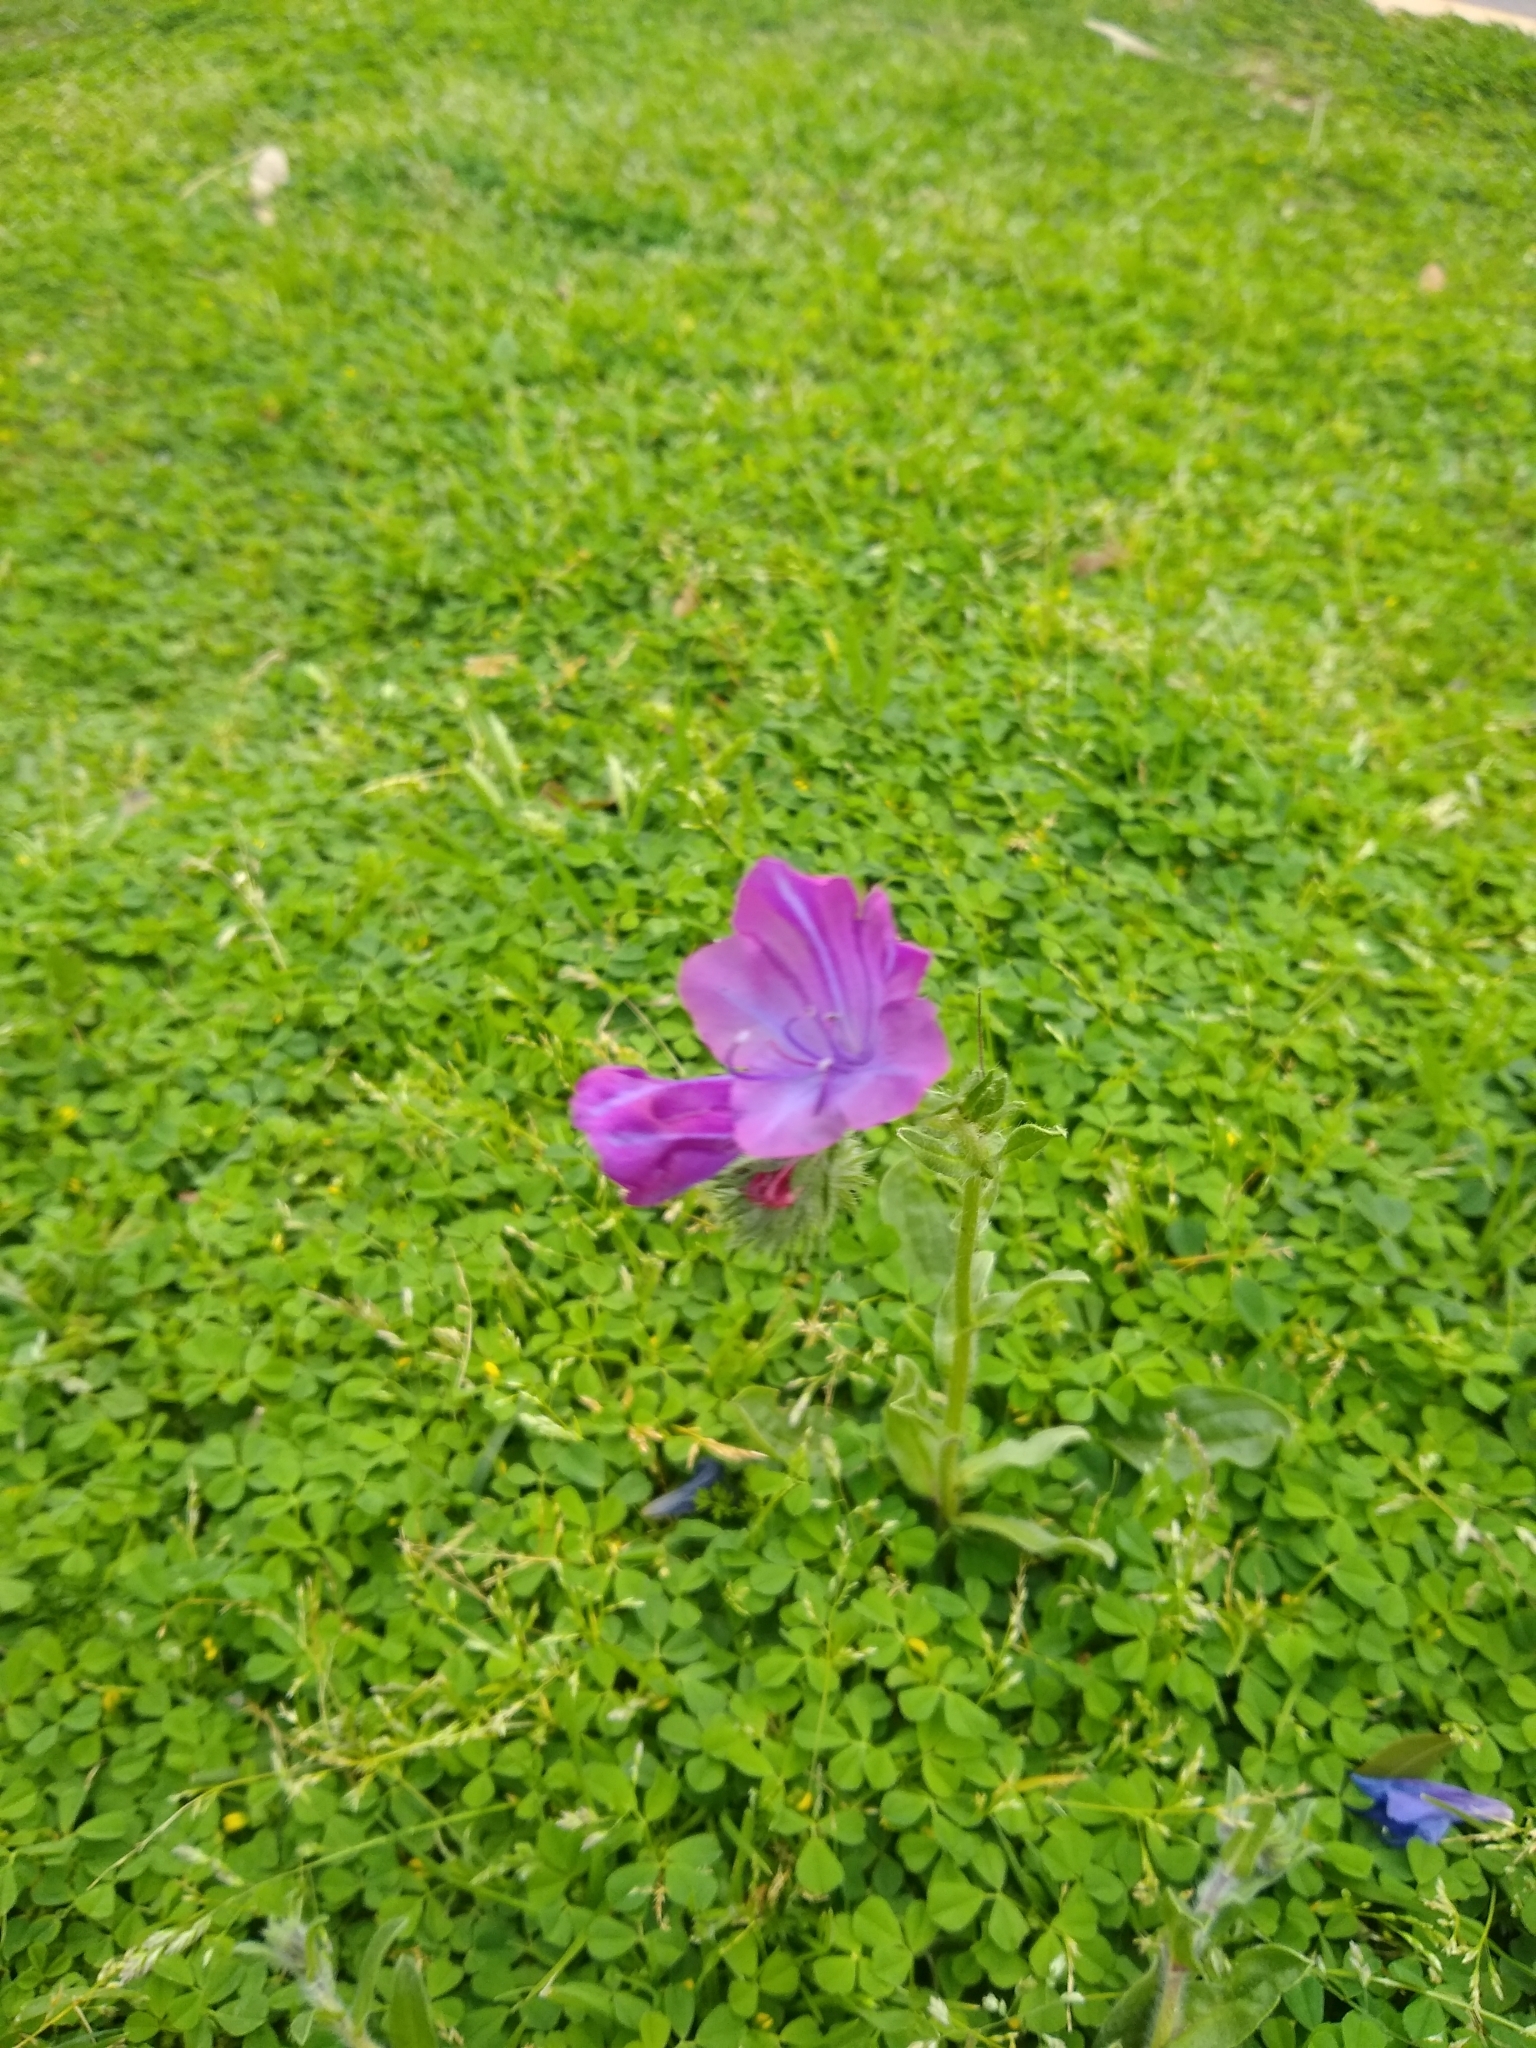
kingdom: Plantae
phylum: Tracheophyta
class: Magnoliopsida
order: Boraginales
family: Boraginaceae
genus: Echium
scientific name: Echium plantagineum
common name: Purple viper's-bugloss
